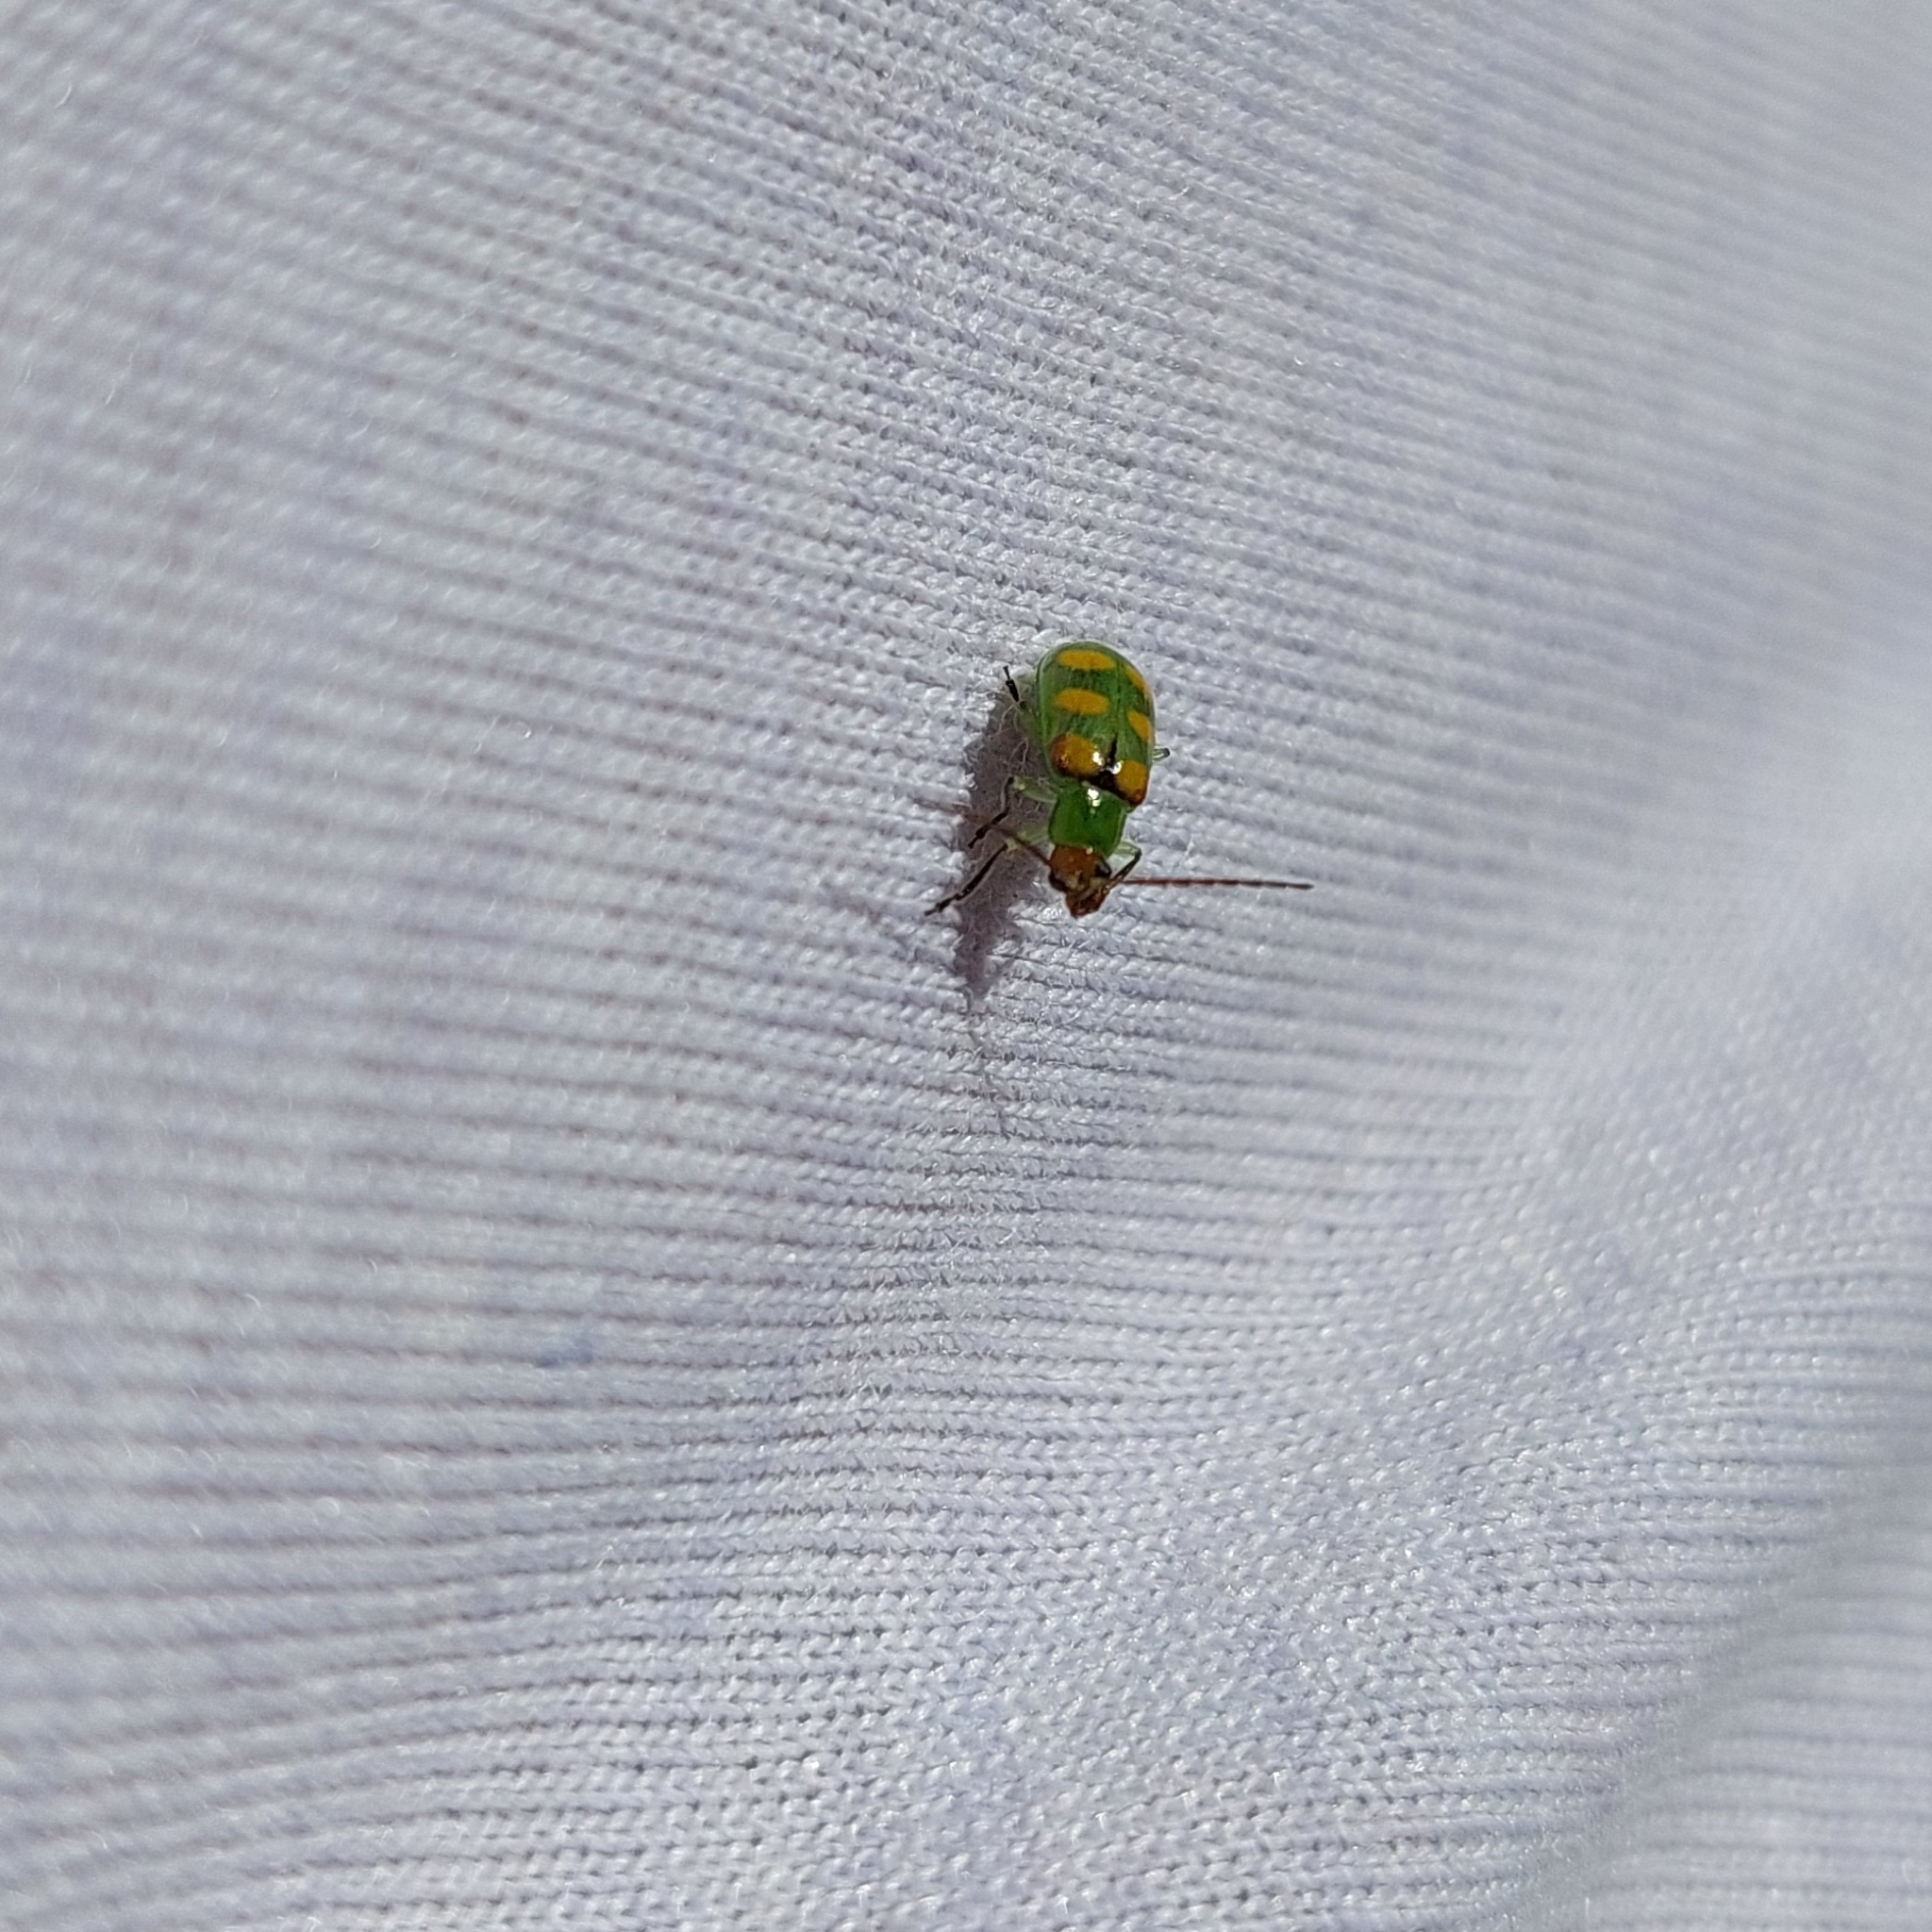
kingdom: Animalia
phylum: Arthropoda
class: Insecta
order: Coleoptera
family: Chrysomelidae
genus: Diabrotica
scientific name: Diabrotica speciosa
